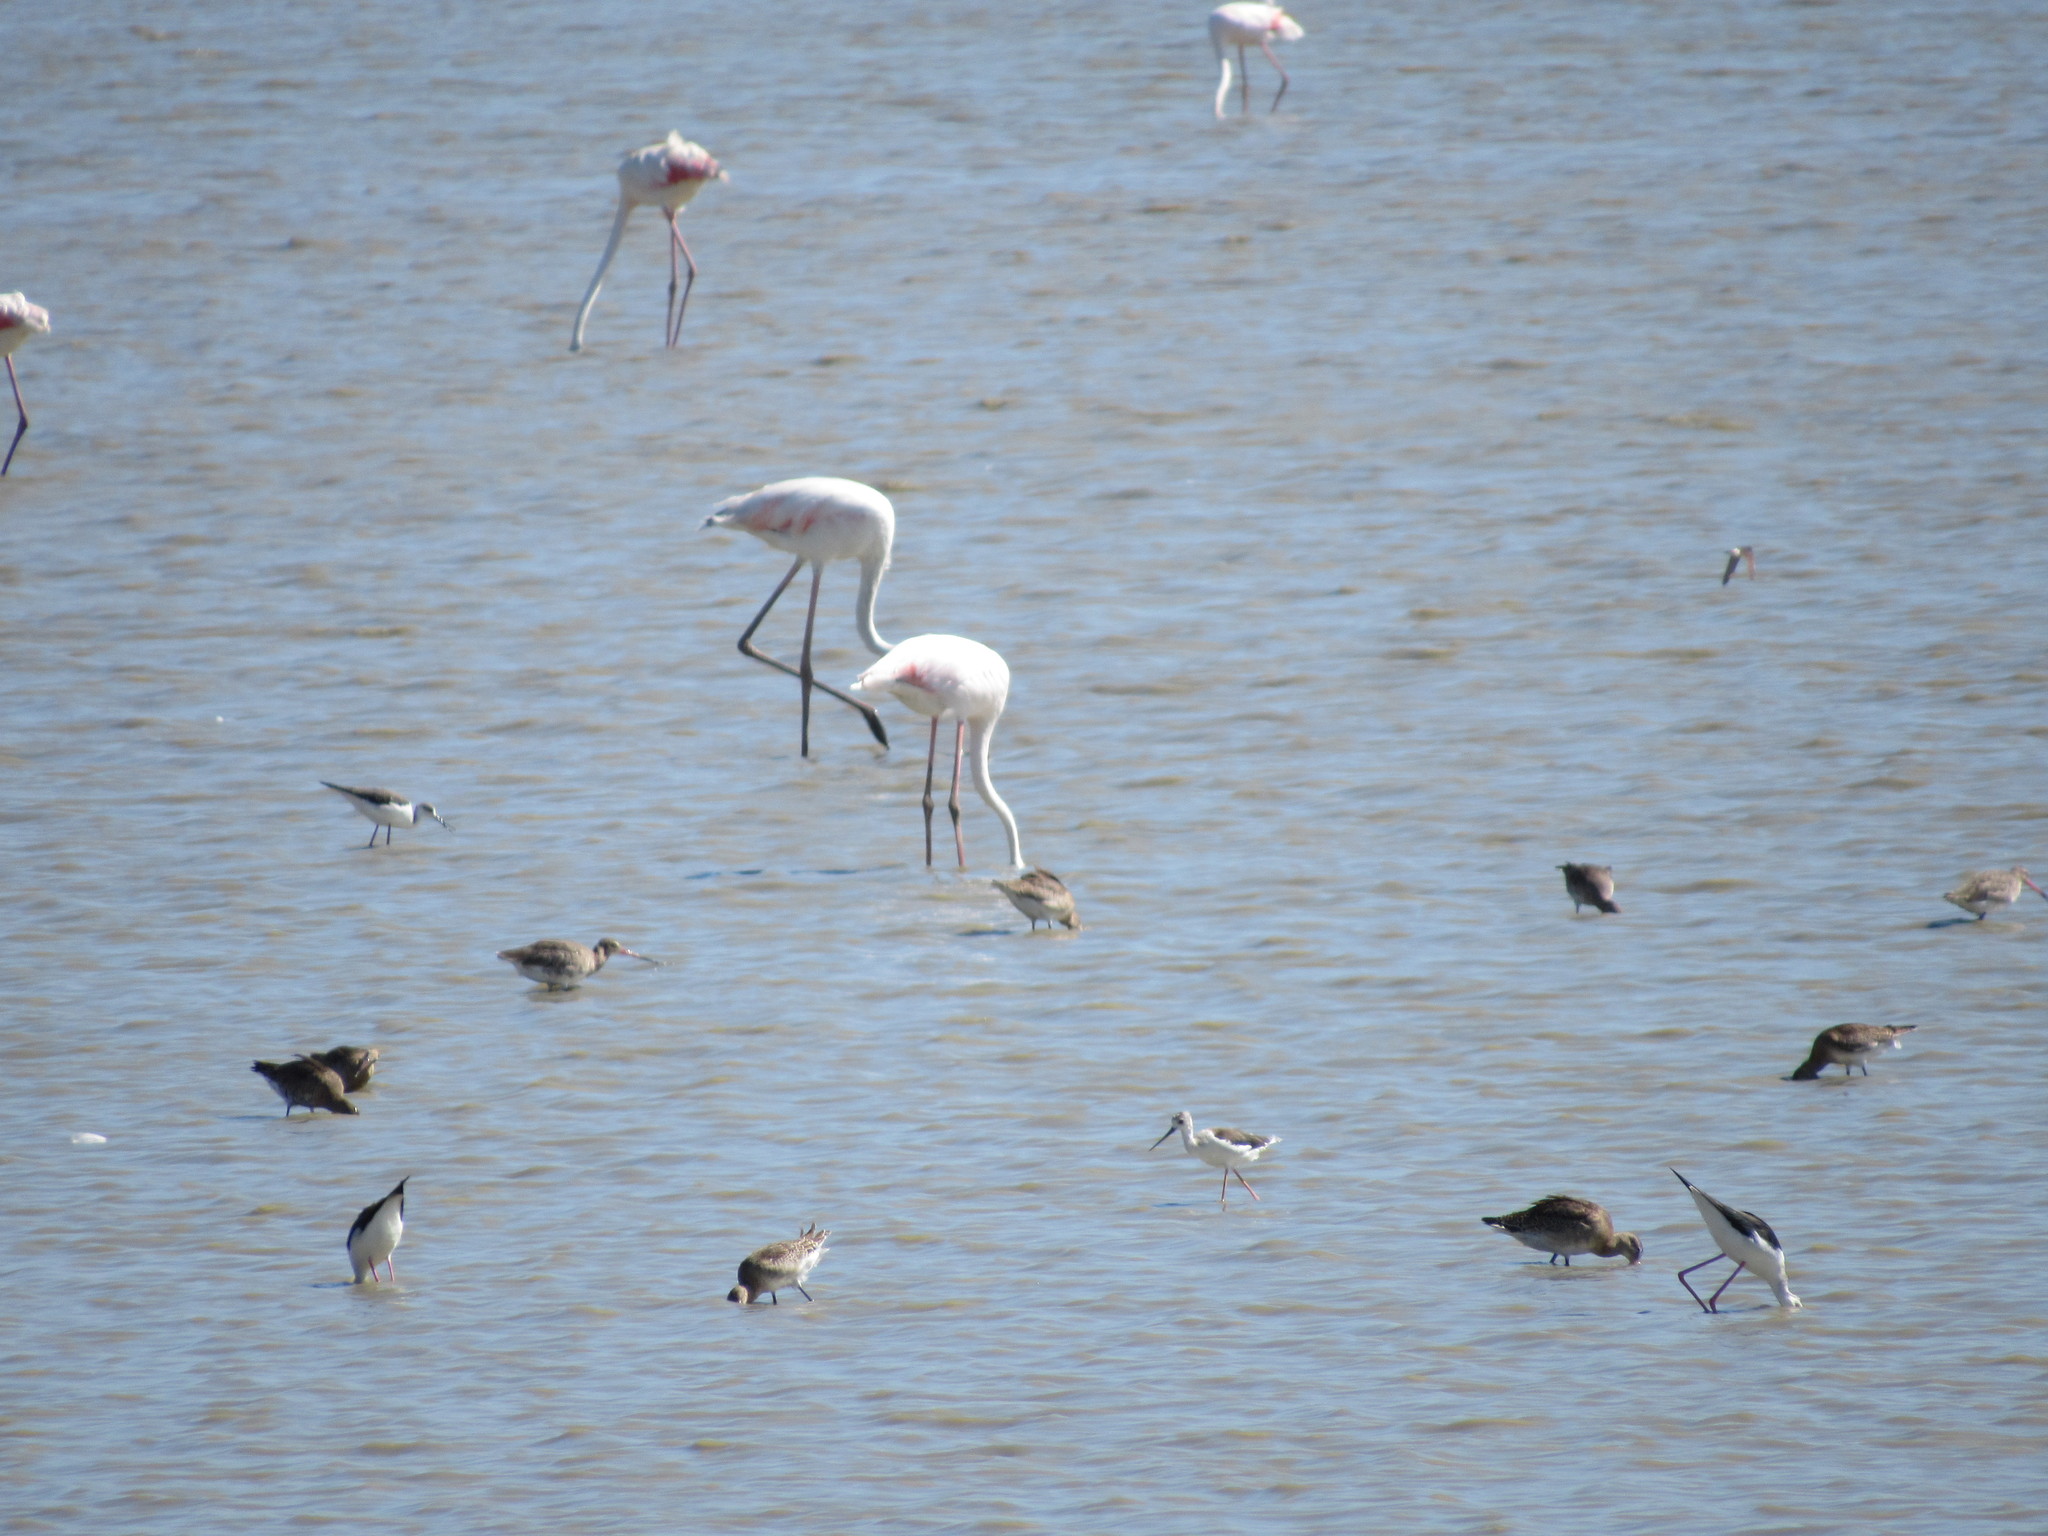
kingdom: Animalia
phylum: Chordata
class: Aves
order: Charadriiformes
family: Recurvirostridae
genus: Himantopus
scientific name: Himantopus himantopus
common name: Black-winged stilt
